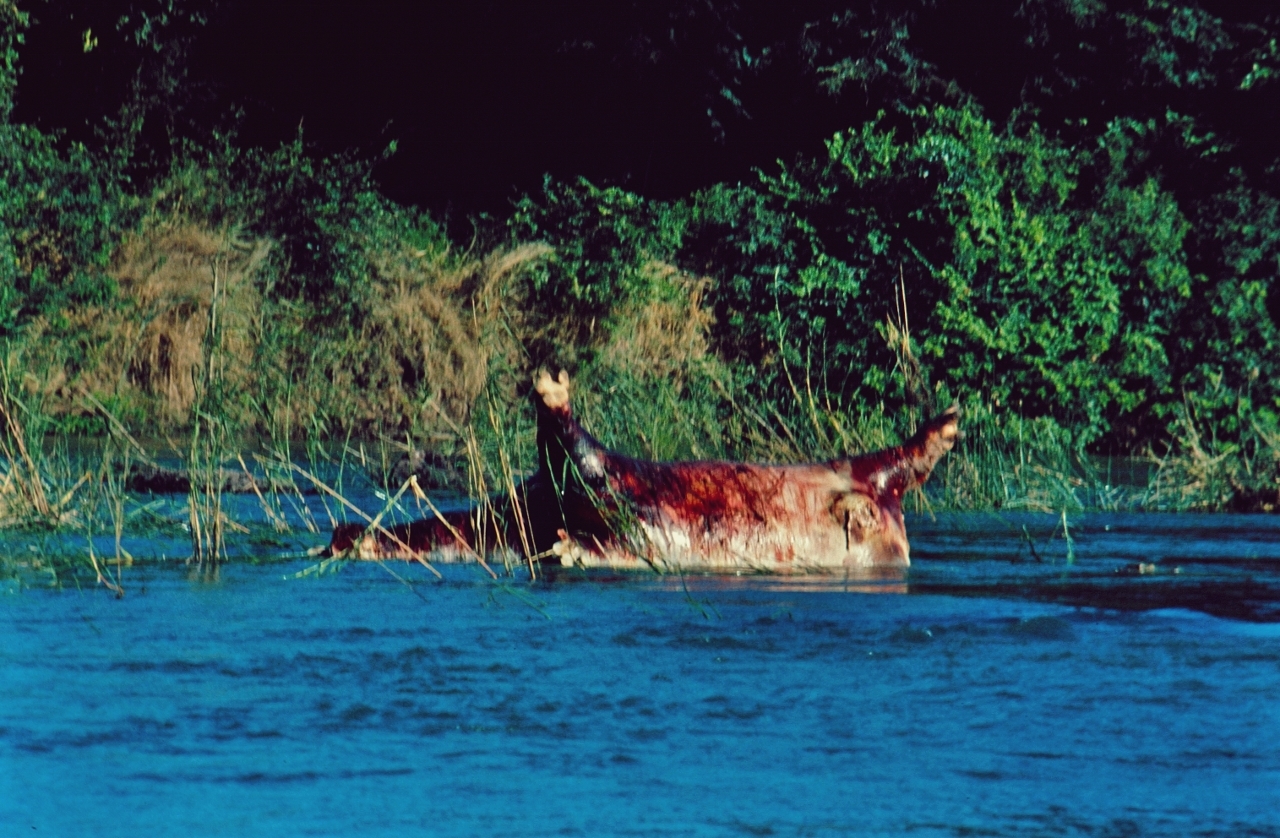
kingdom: Animalia
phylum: Chordata
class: Mammalia
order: Artiodactyla
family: Hippopotamidae
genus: Hippopotamus
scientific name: Hippopotamus amphibius
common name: Common hippopotamus
